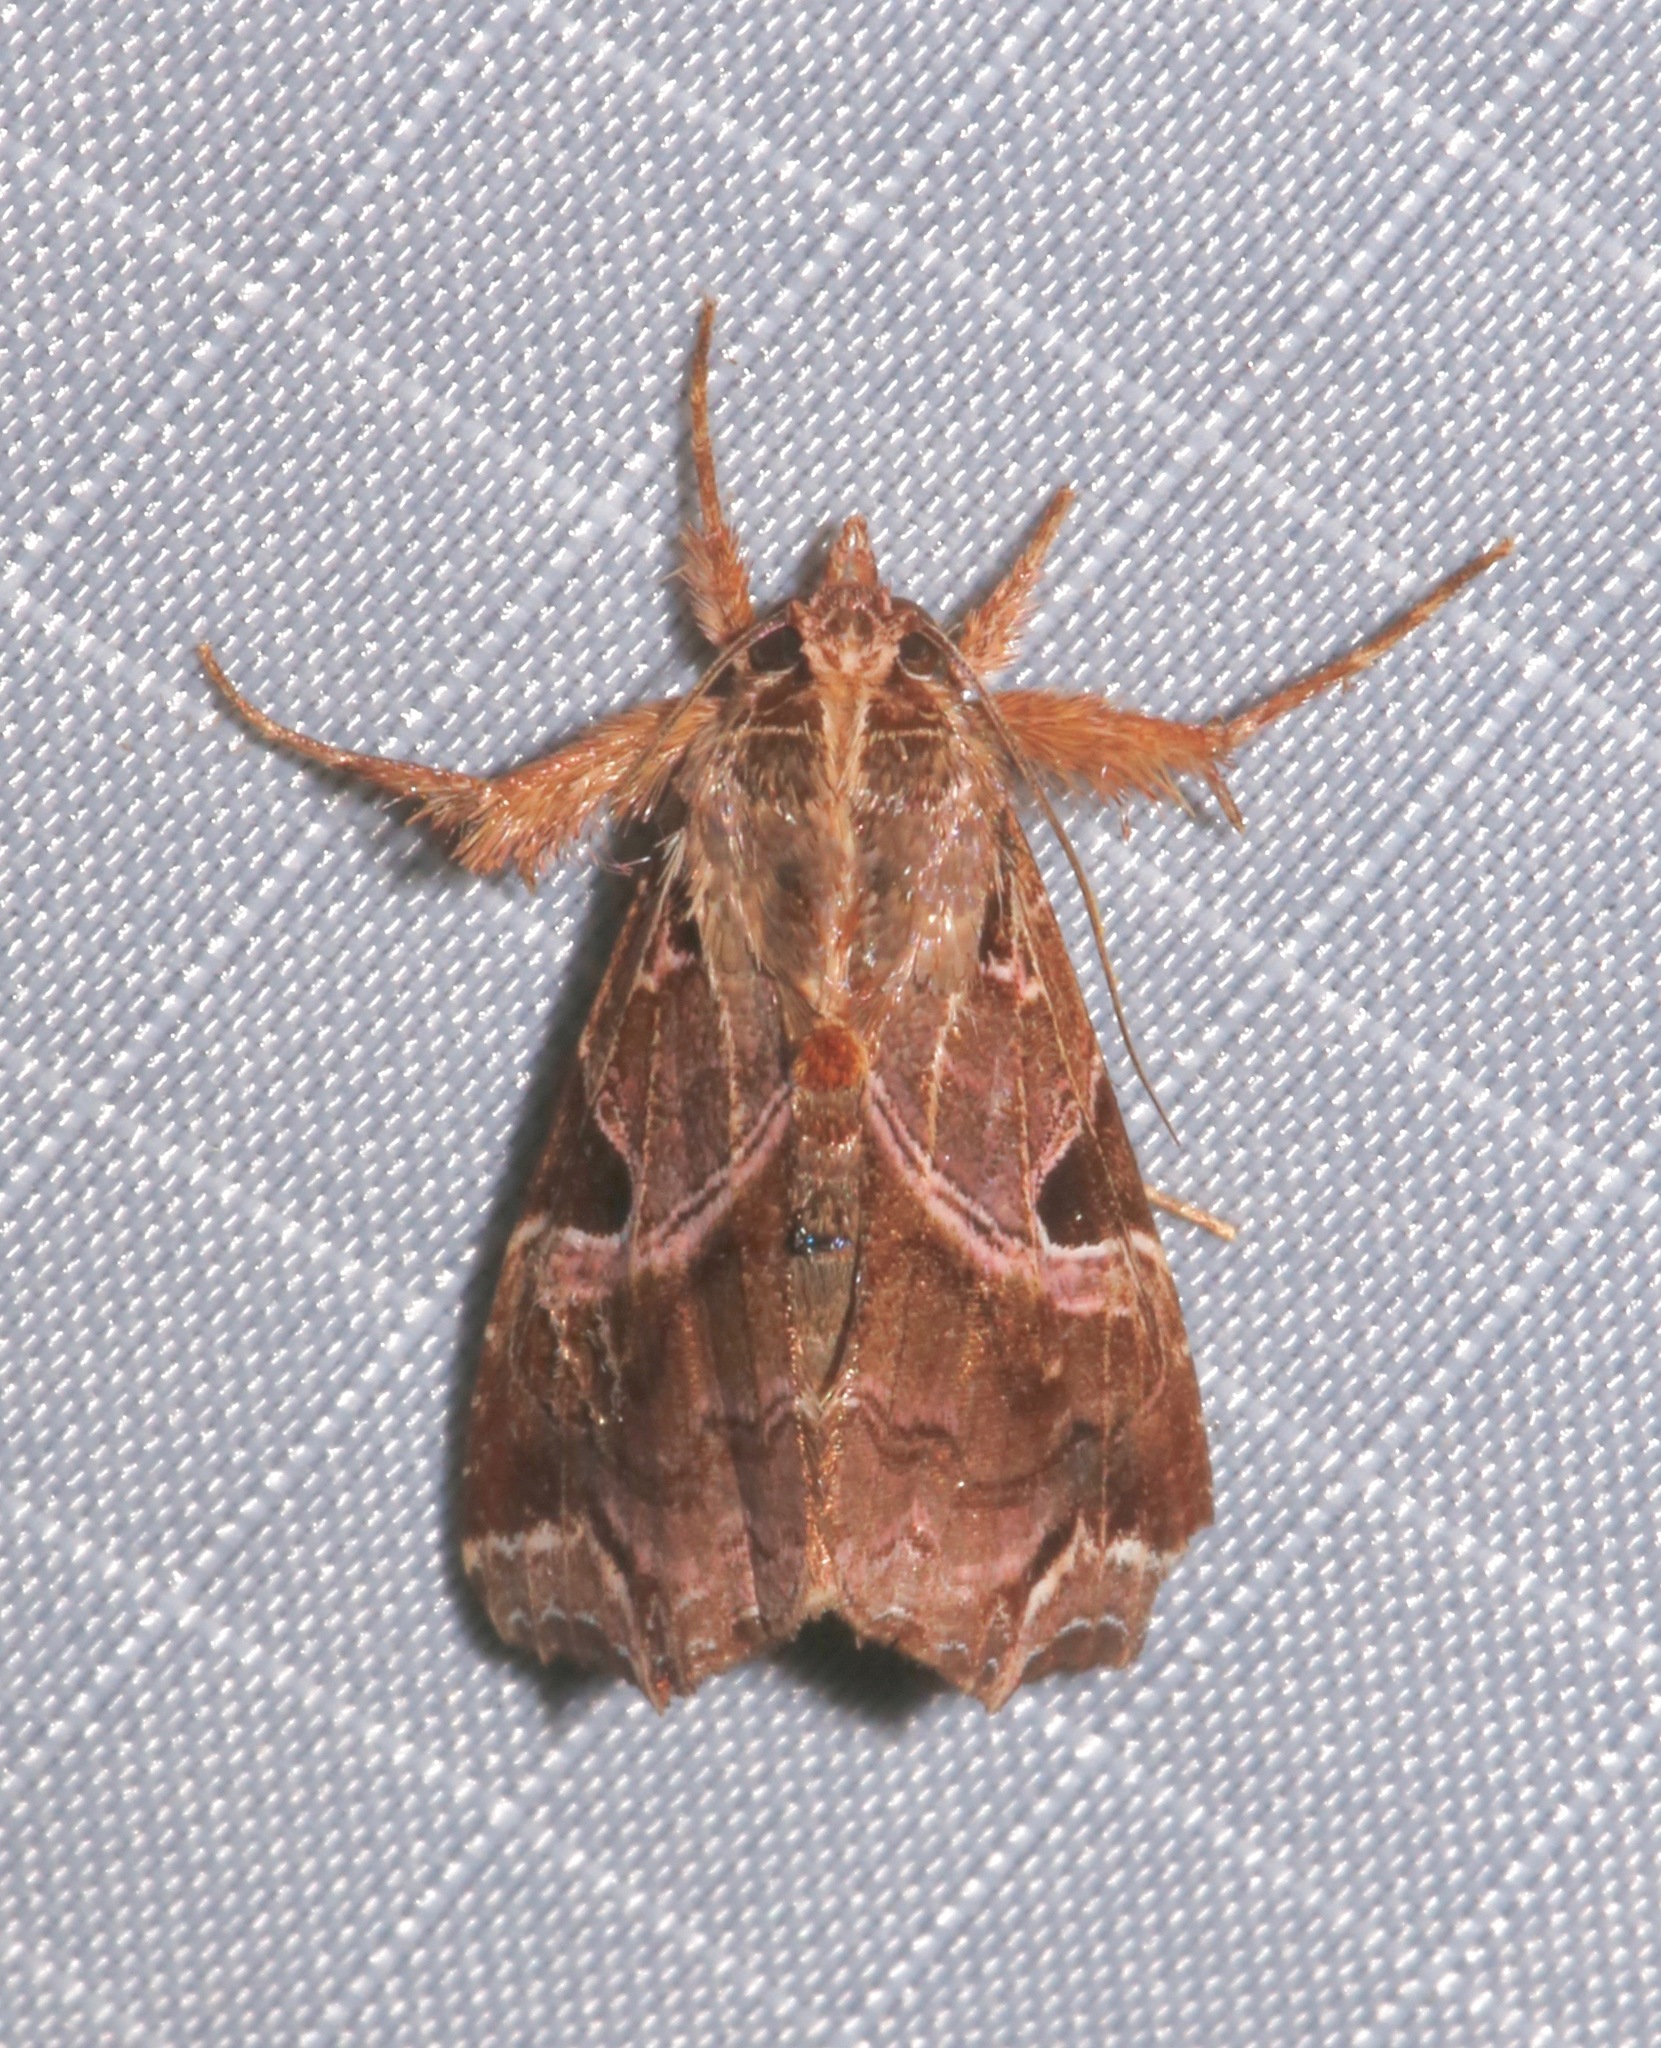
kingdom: Animalia
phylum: Arthropoda
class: Insecta
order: Lepidoptera
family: Noctuidae
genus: Callopistria
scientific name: Callopistria floridensis
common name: Florida fern moth
